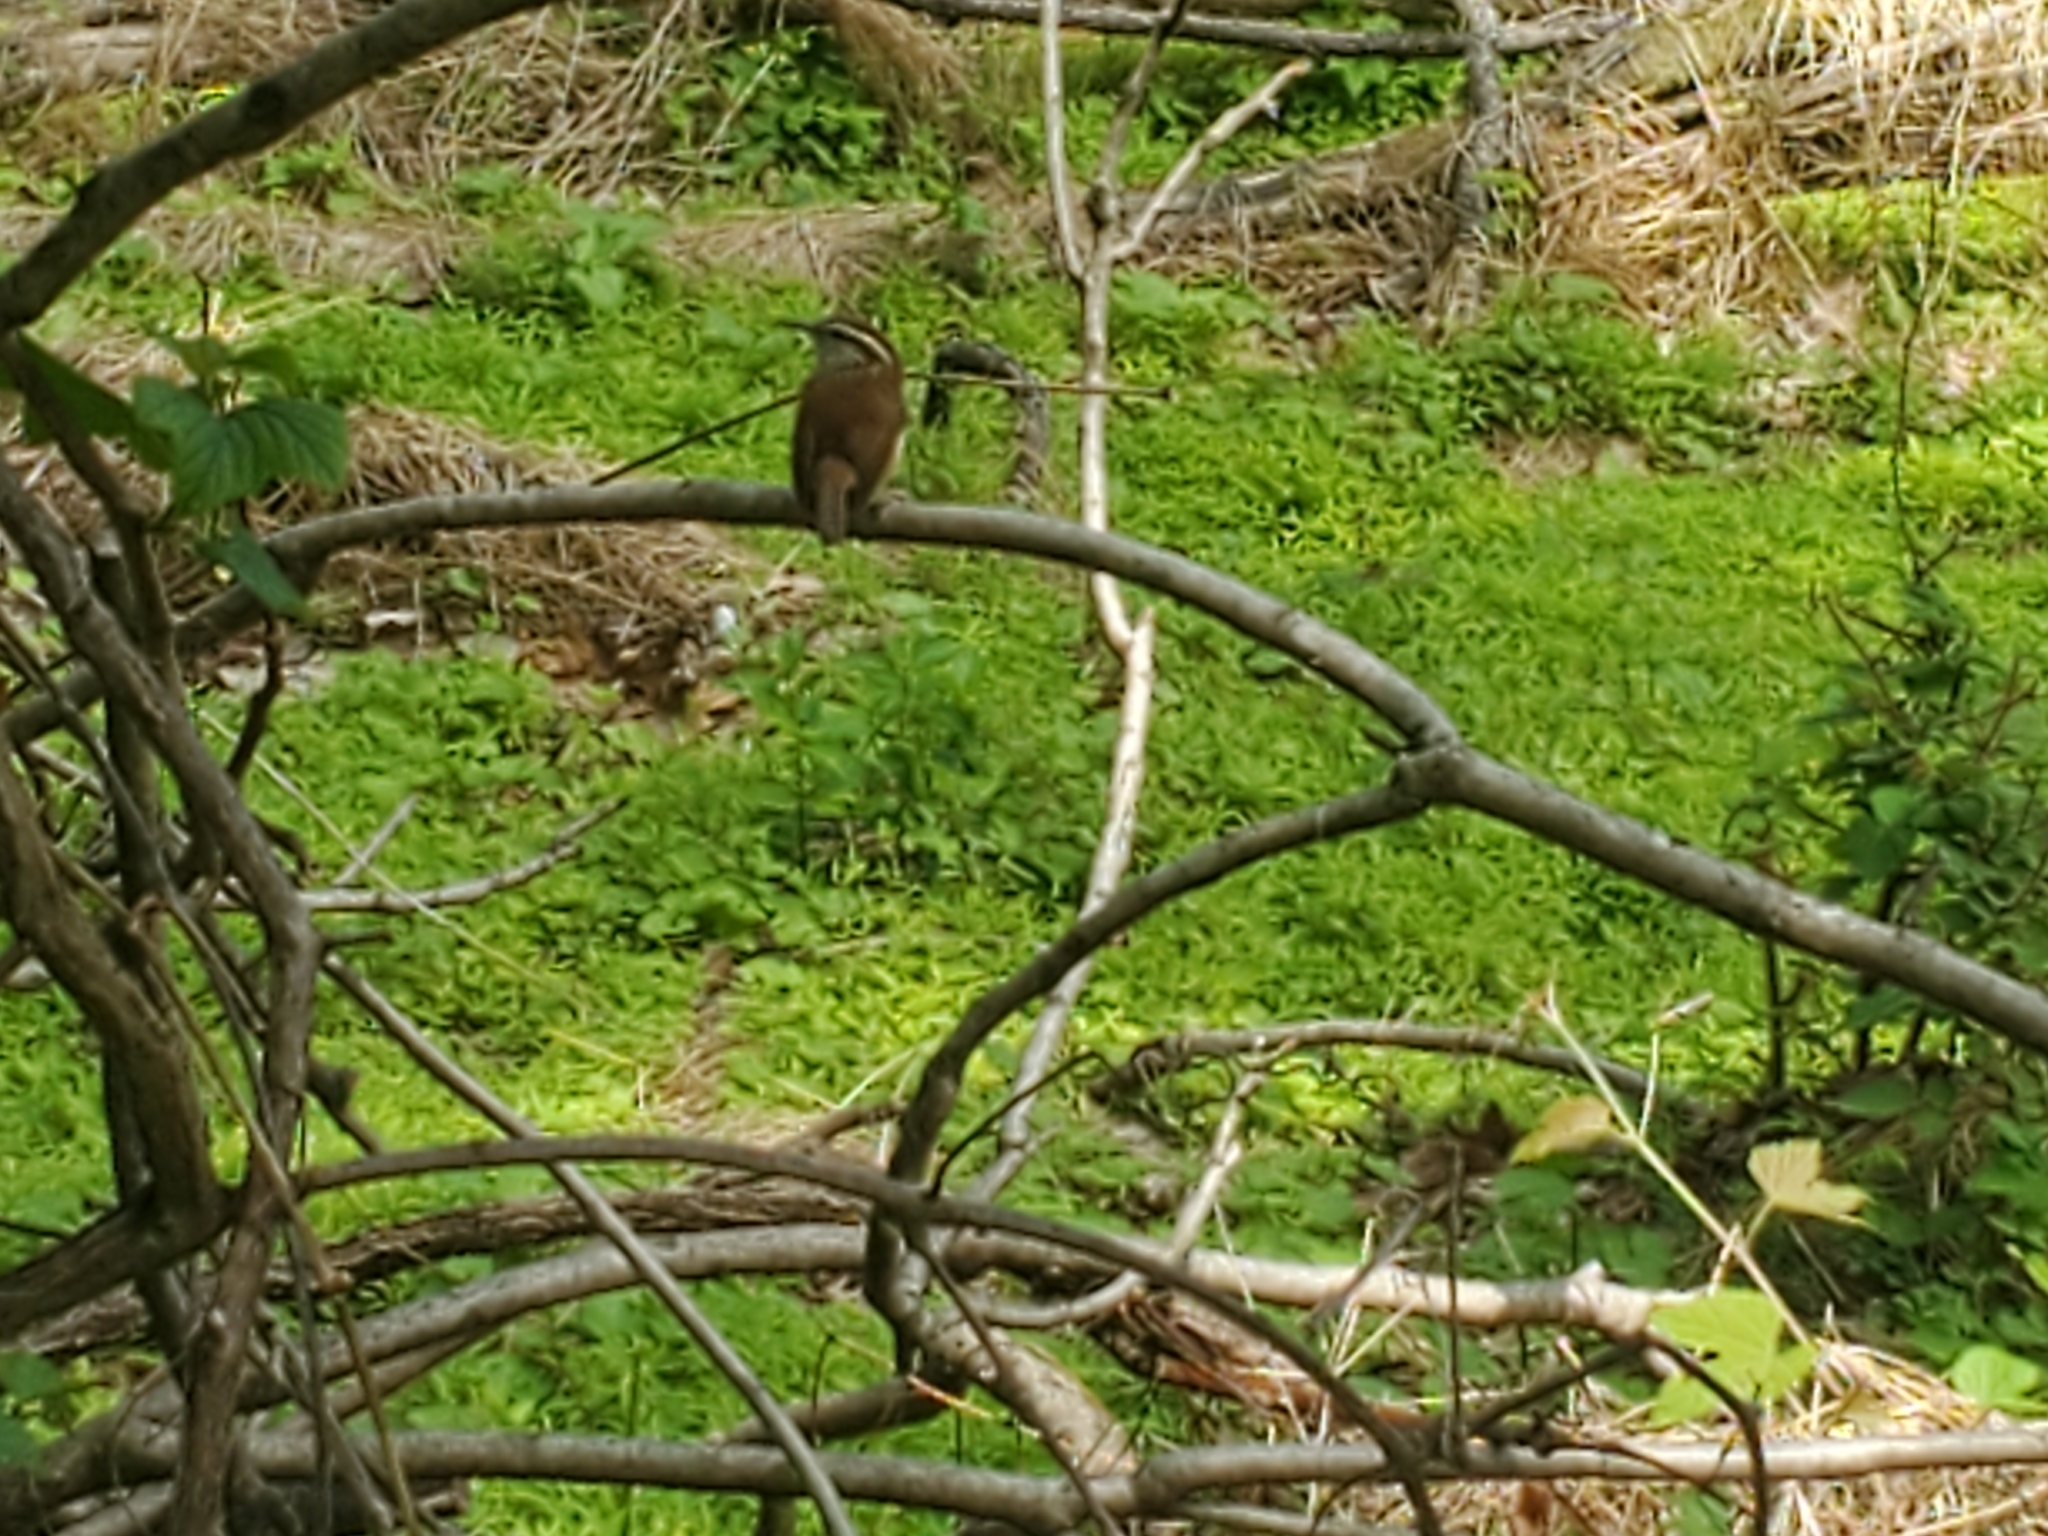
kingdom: Animalia
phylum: Chordata
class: Aves
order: Passeriformes
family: Troglodytidae
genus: Thryothorus
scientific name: Thryothorus ludovicianus
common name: Carolina wren
